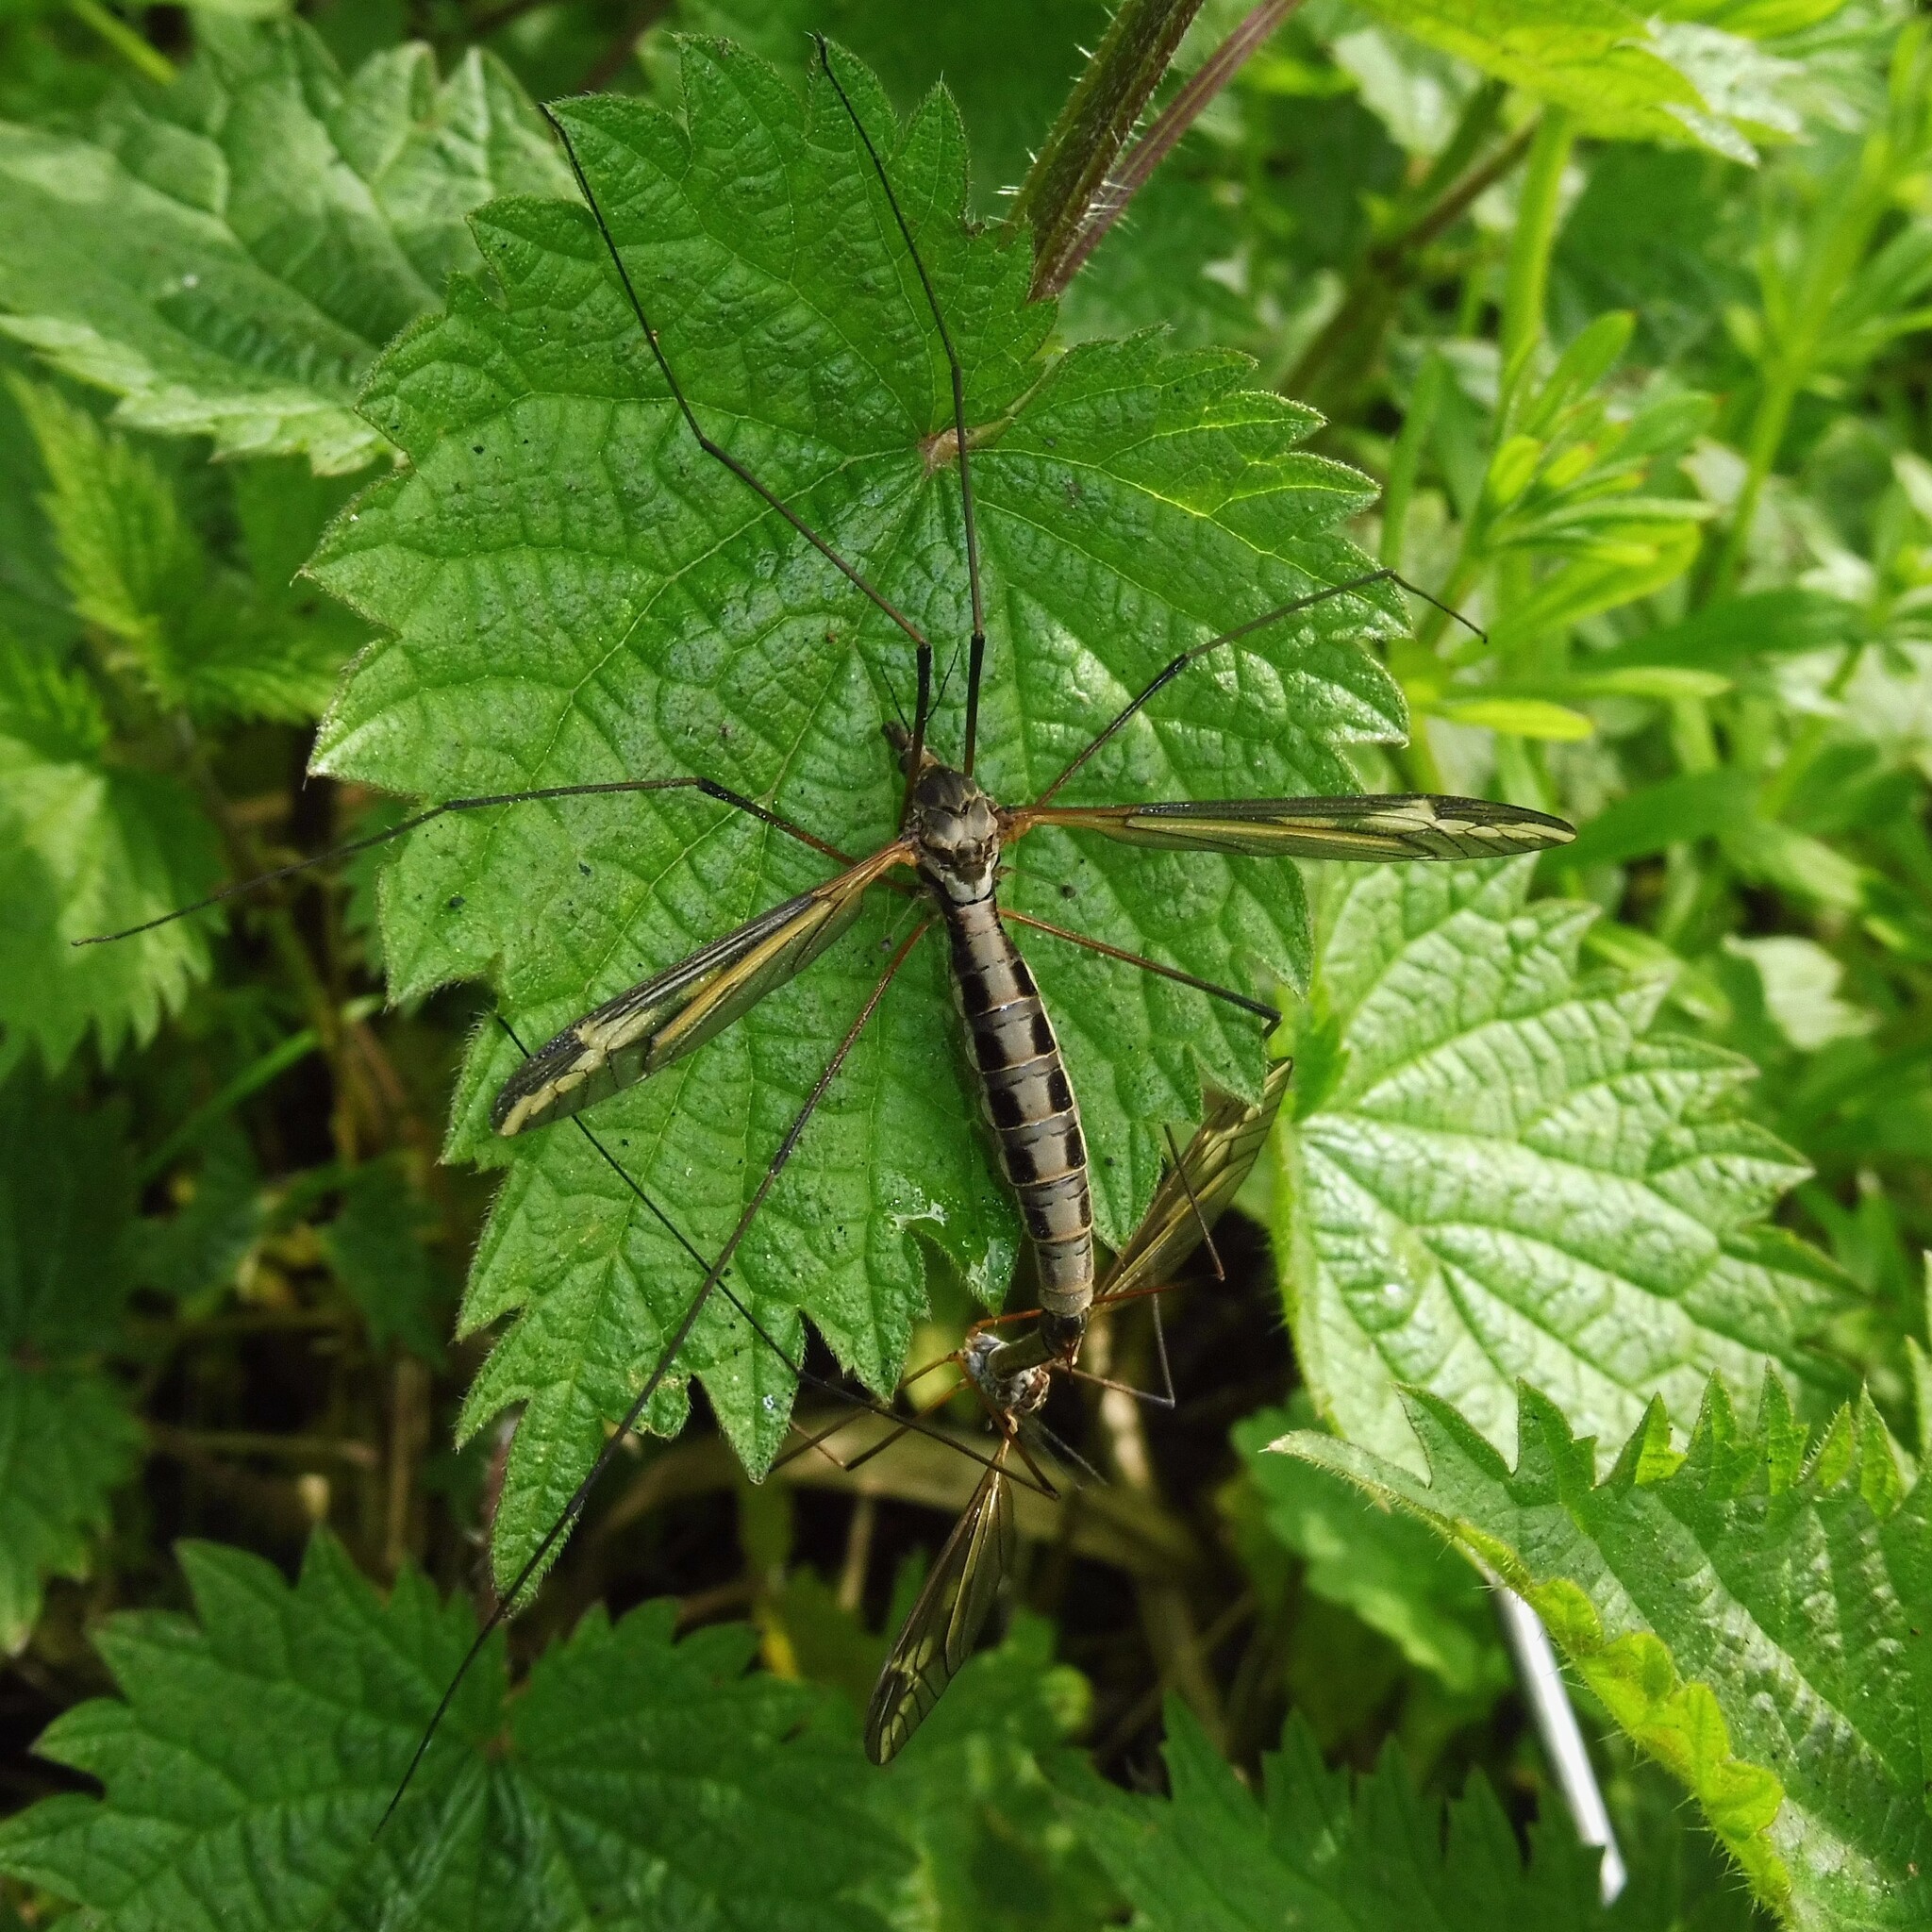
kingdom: Animalia
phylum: Arthropoda
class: Insecta
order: Diptera
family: Tipulidae
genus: Tipula
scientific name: Tipula vittata
